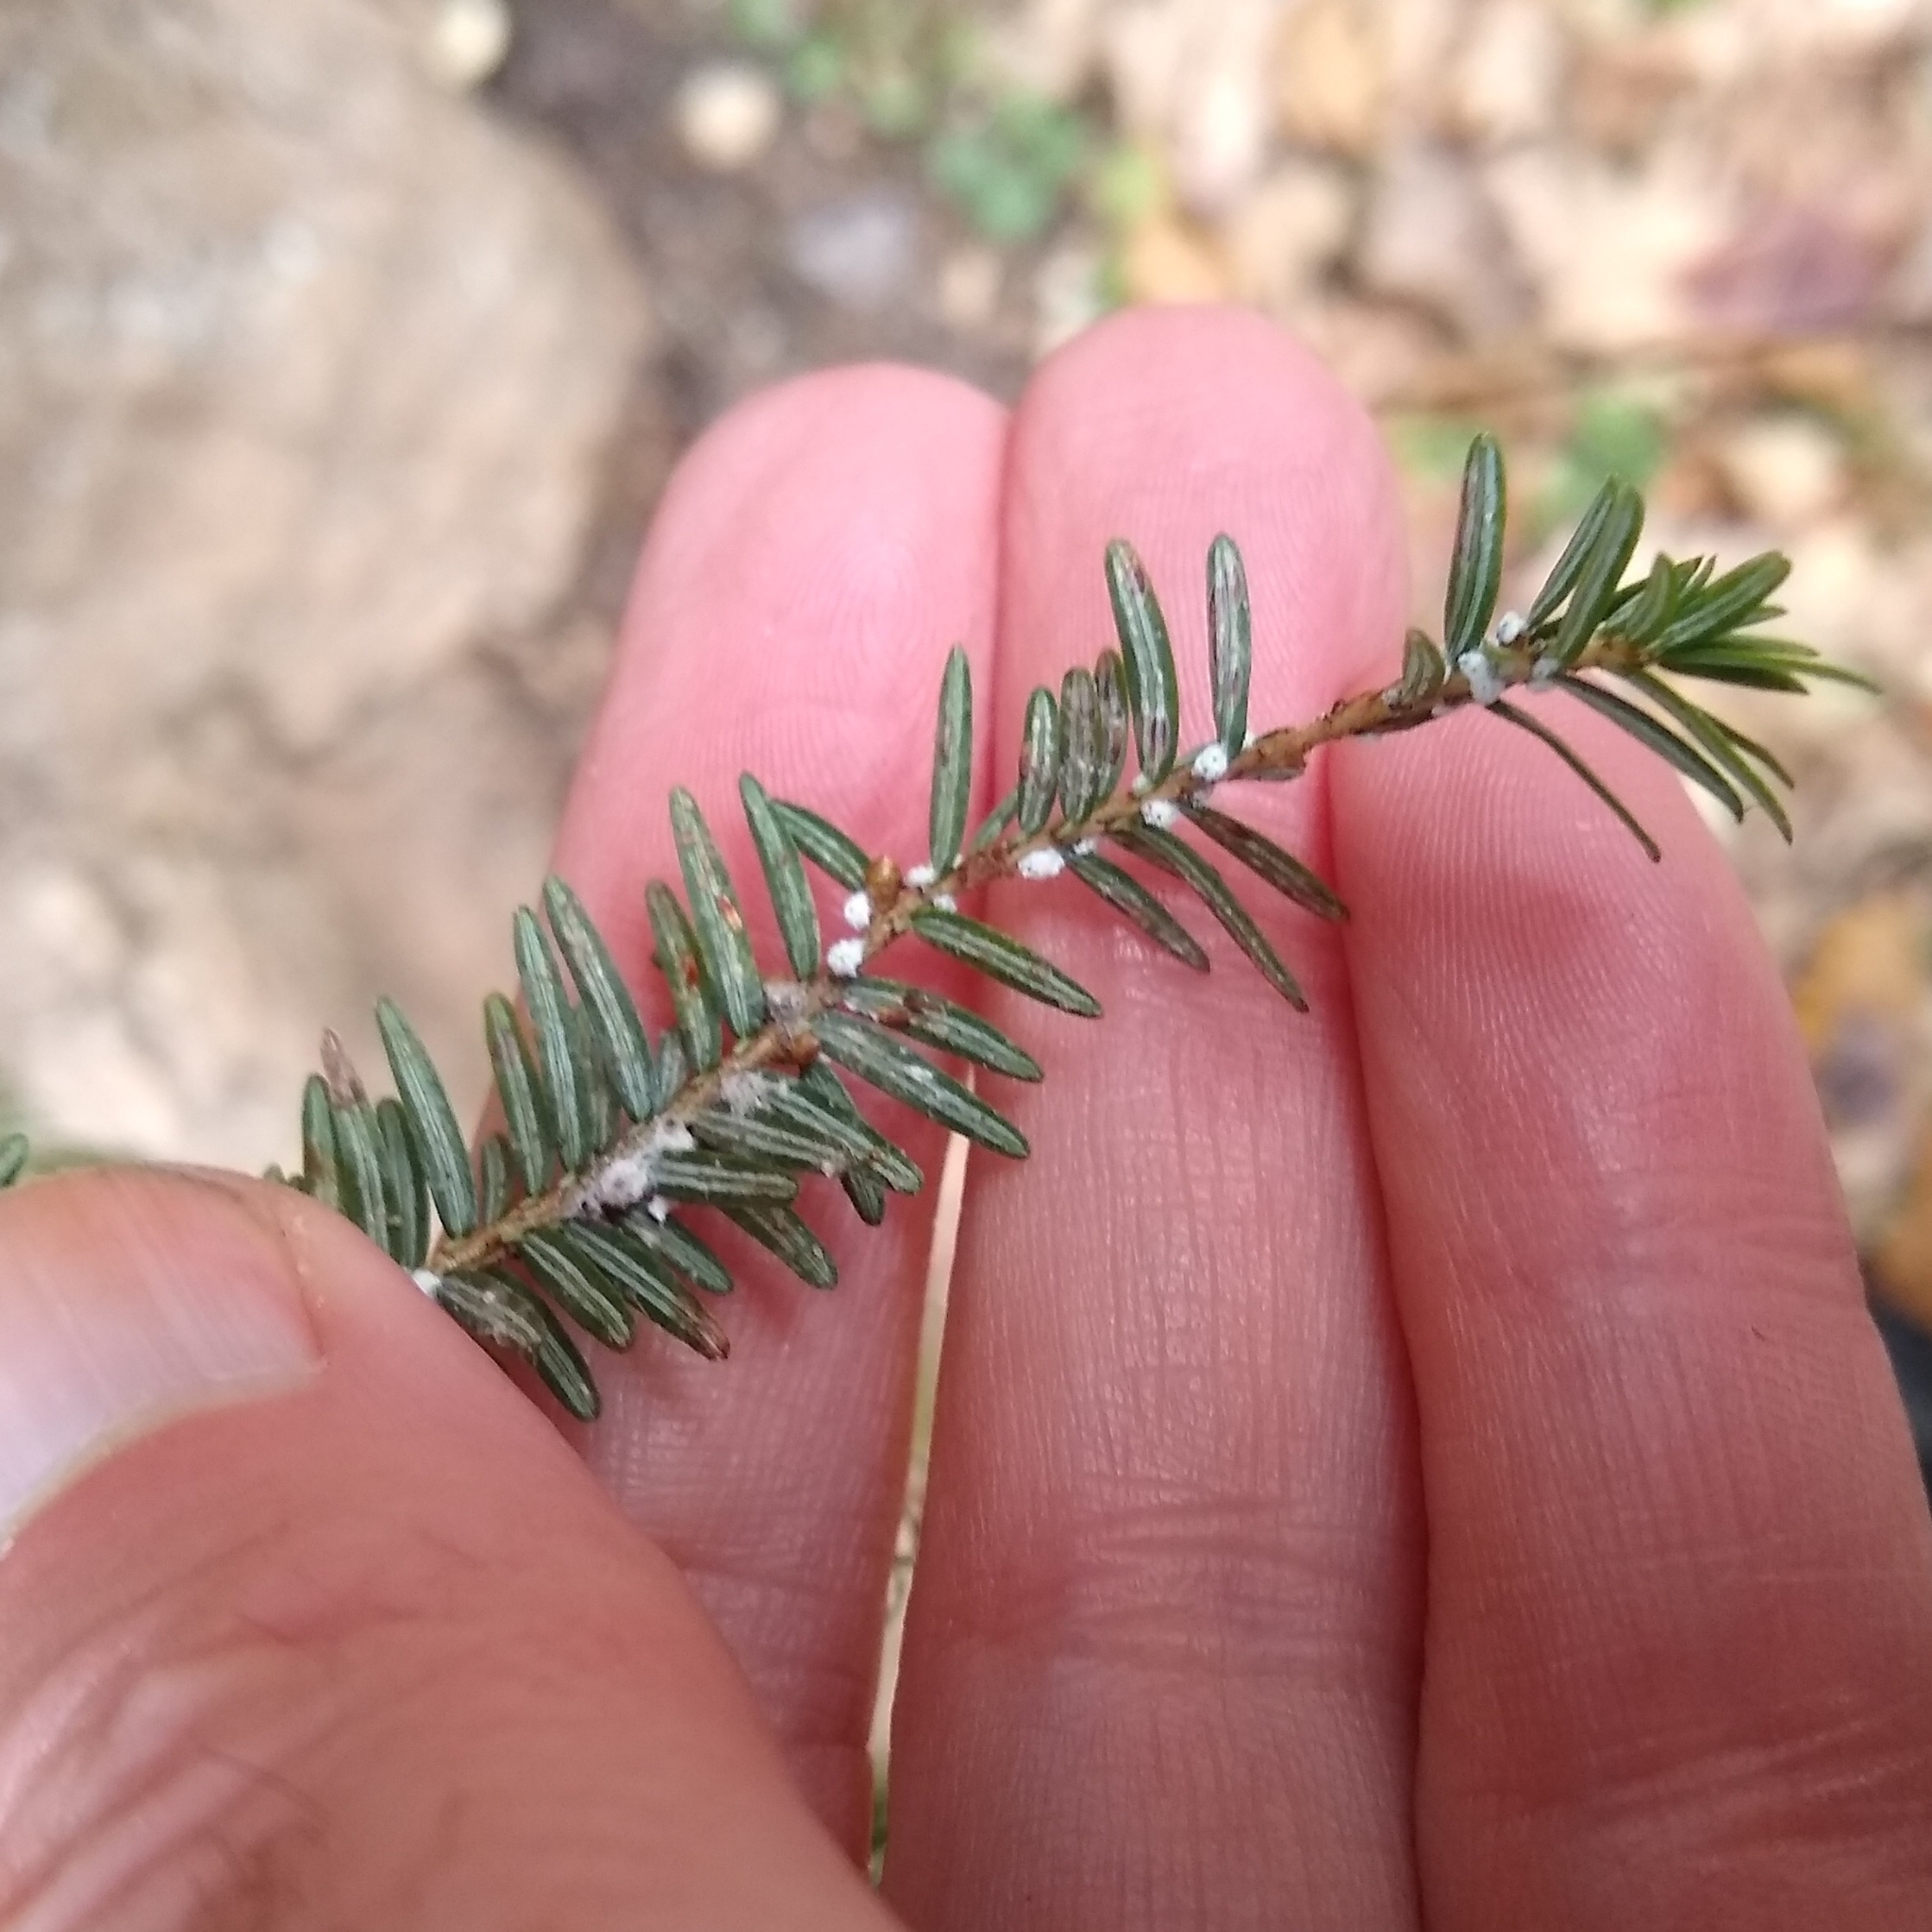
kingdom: Animalia
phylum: Arthropoda
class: Insecta
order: Hemiptera
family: Adelgidae
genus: Adelges
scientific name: Adelges tsugae
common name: Hemlock woolly adelgid
